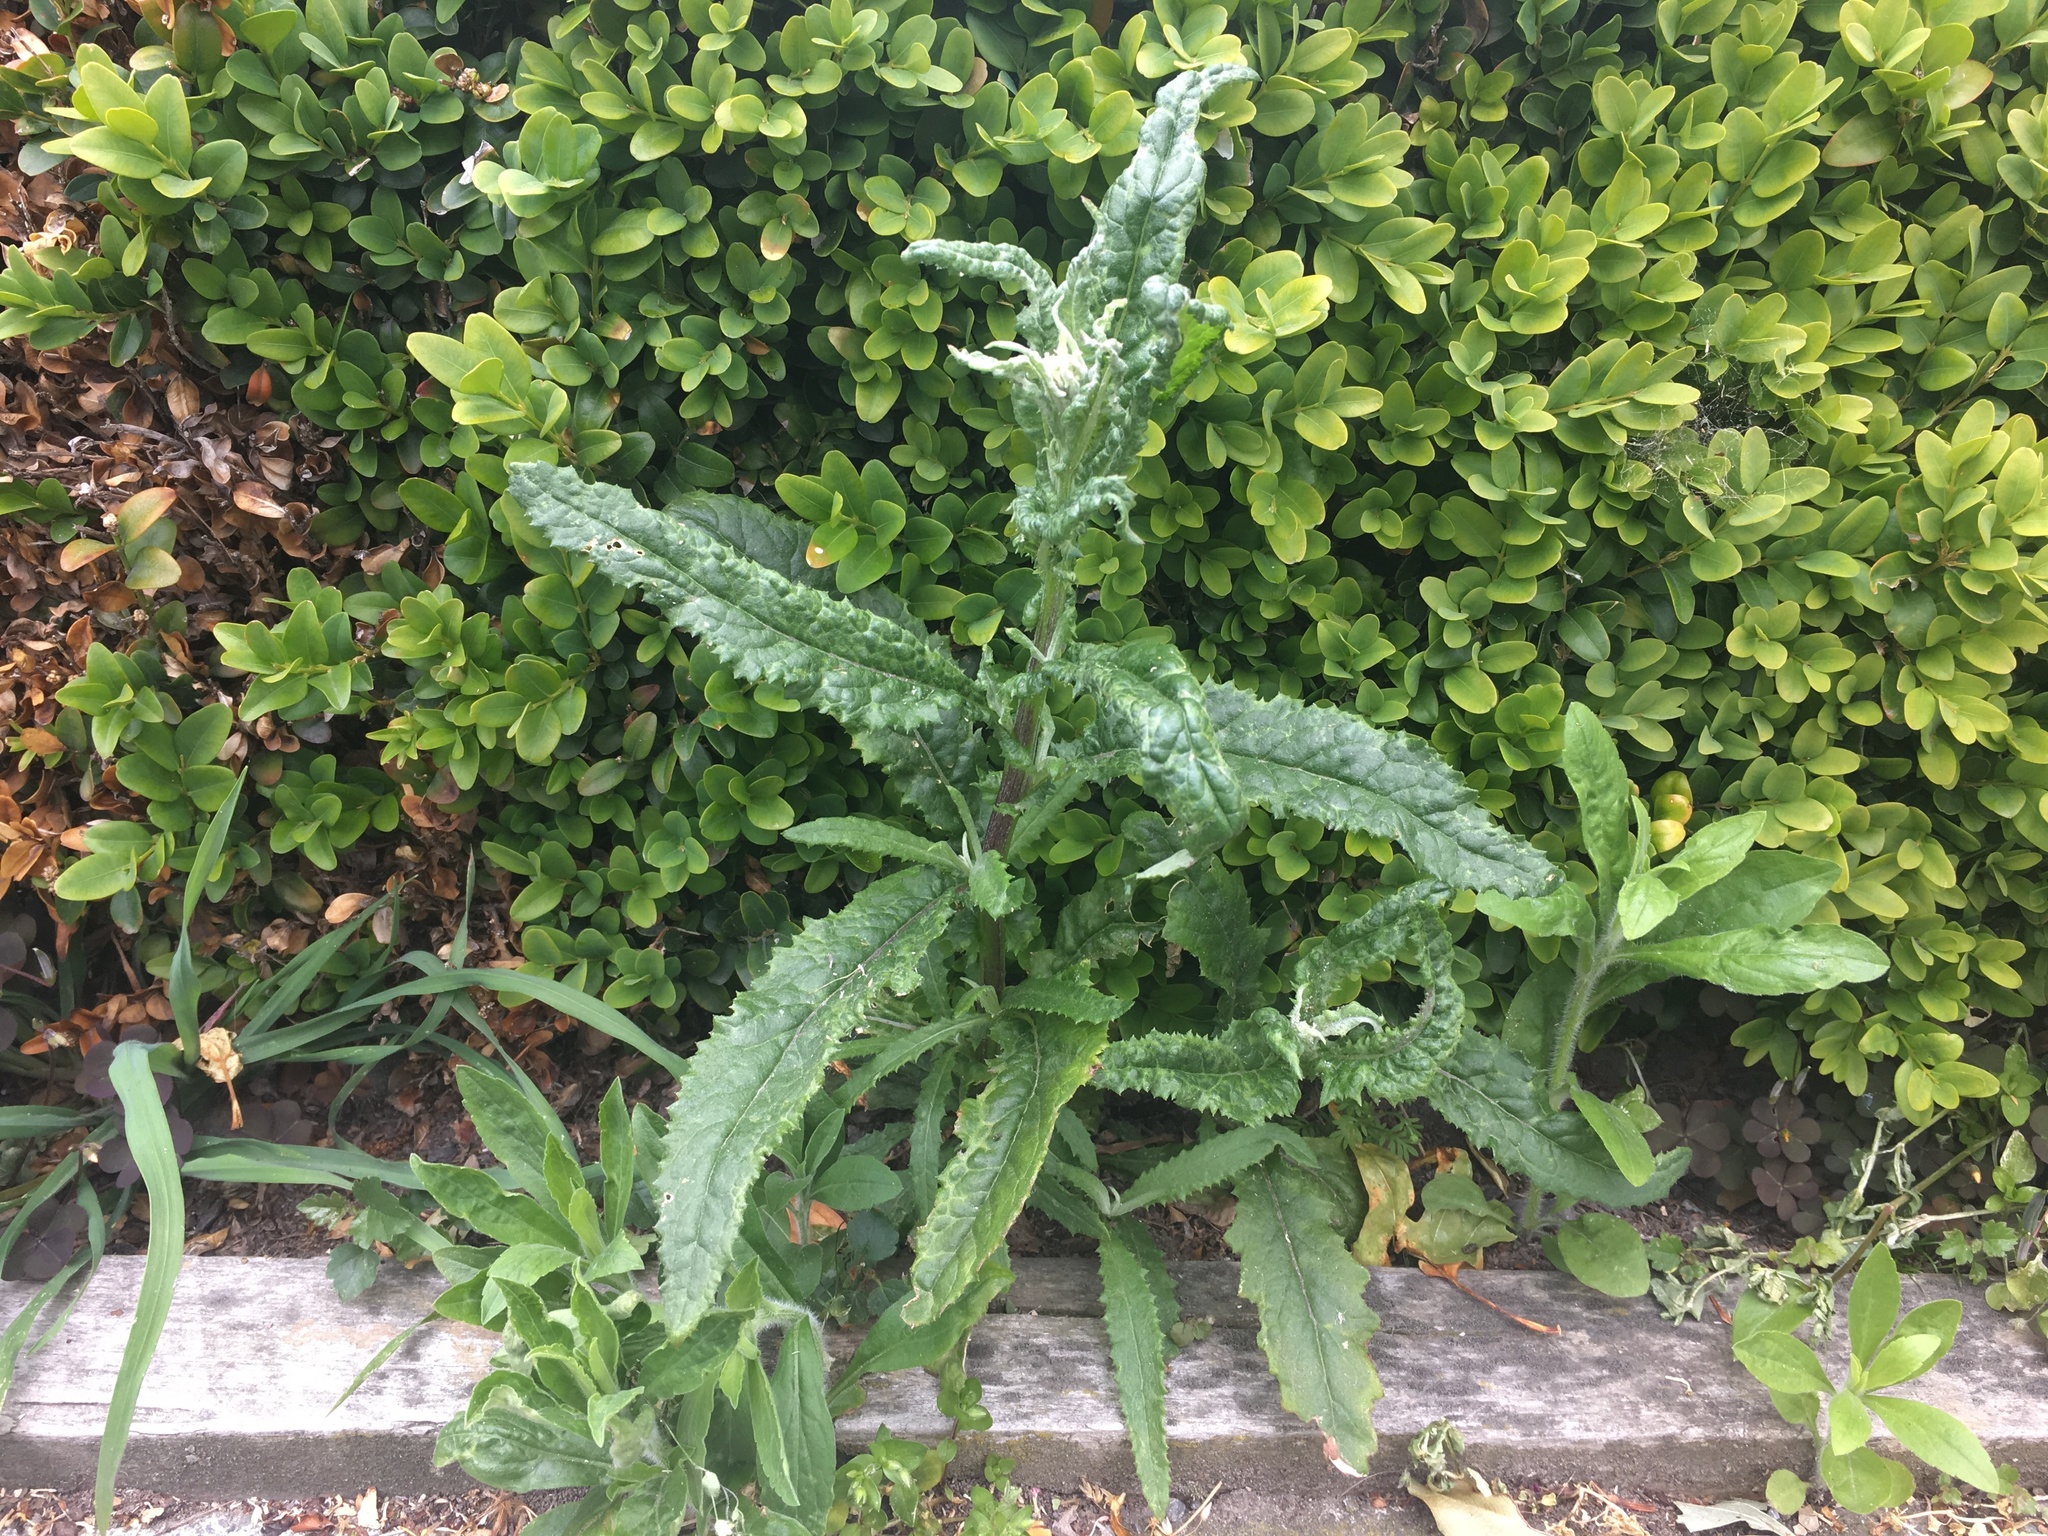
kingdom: Plantae
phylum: Tracheophyta
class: Magnoliopsida
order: Asterales
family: Asteraceae
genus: Senecio
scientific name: Senecio minimus
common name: Toothed fireweed
